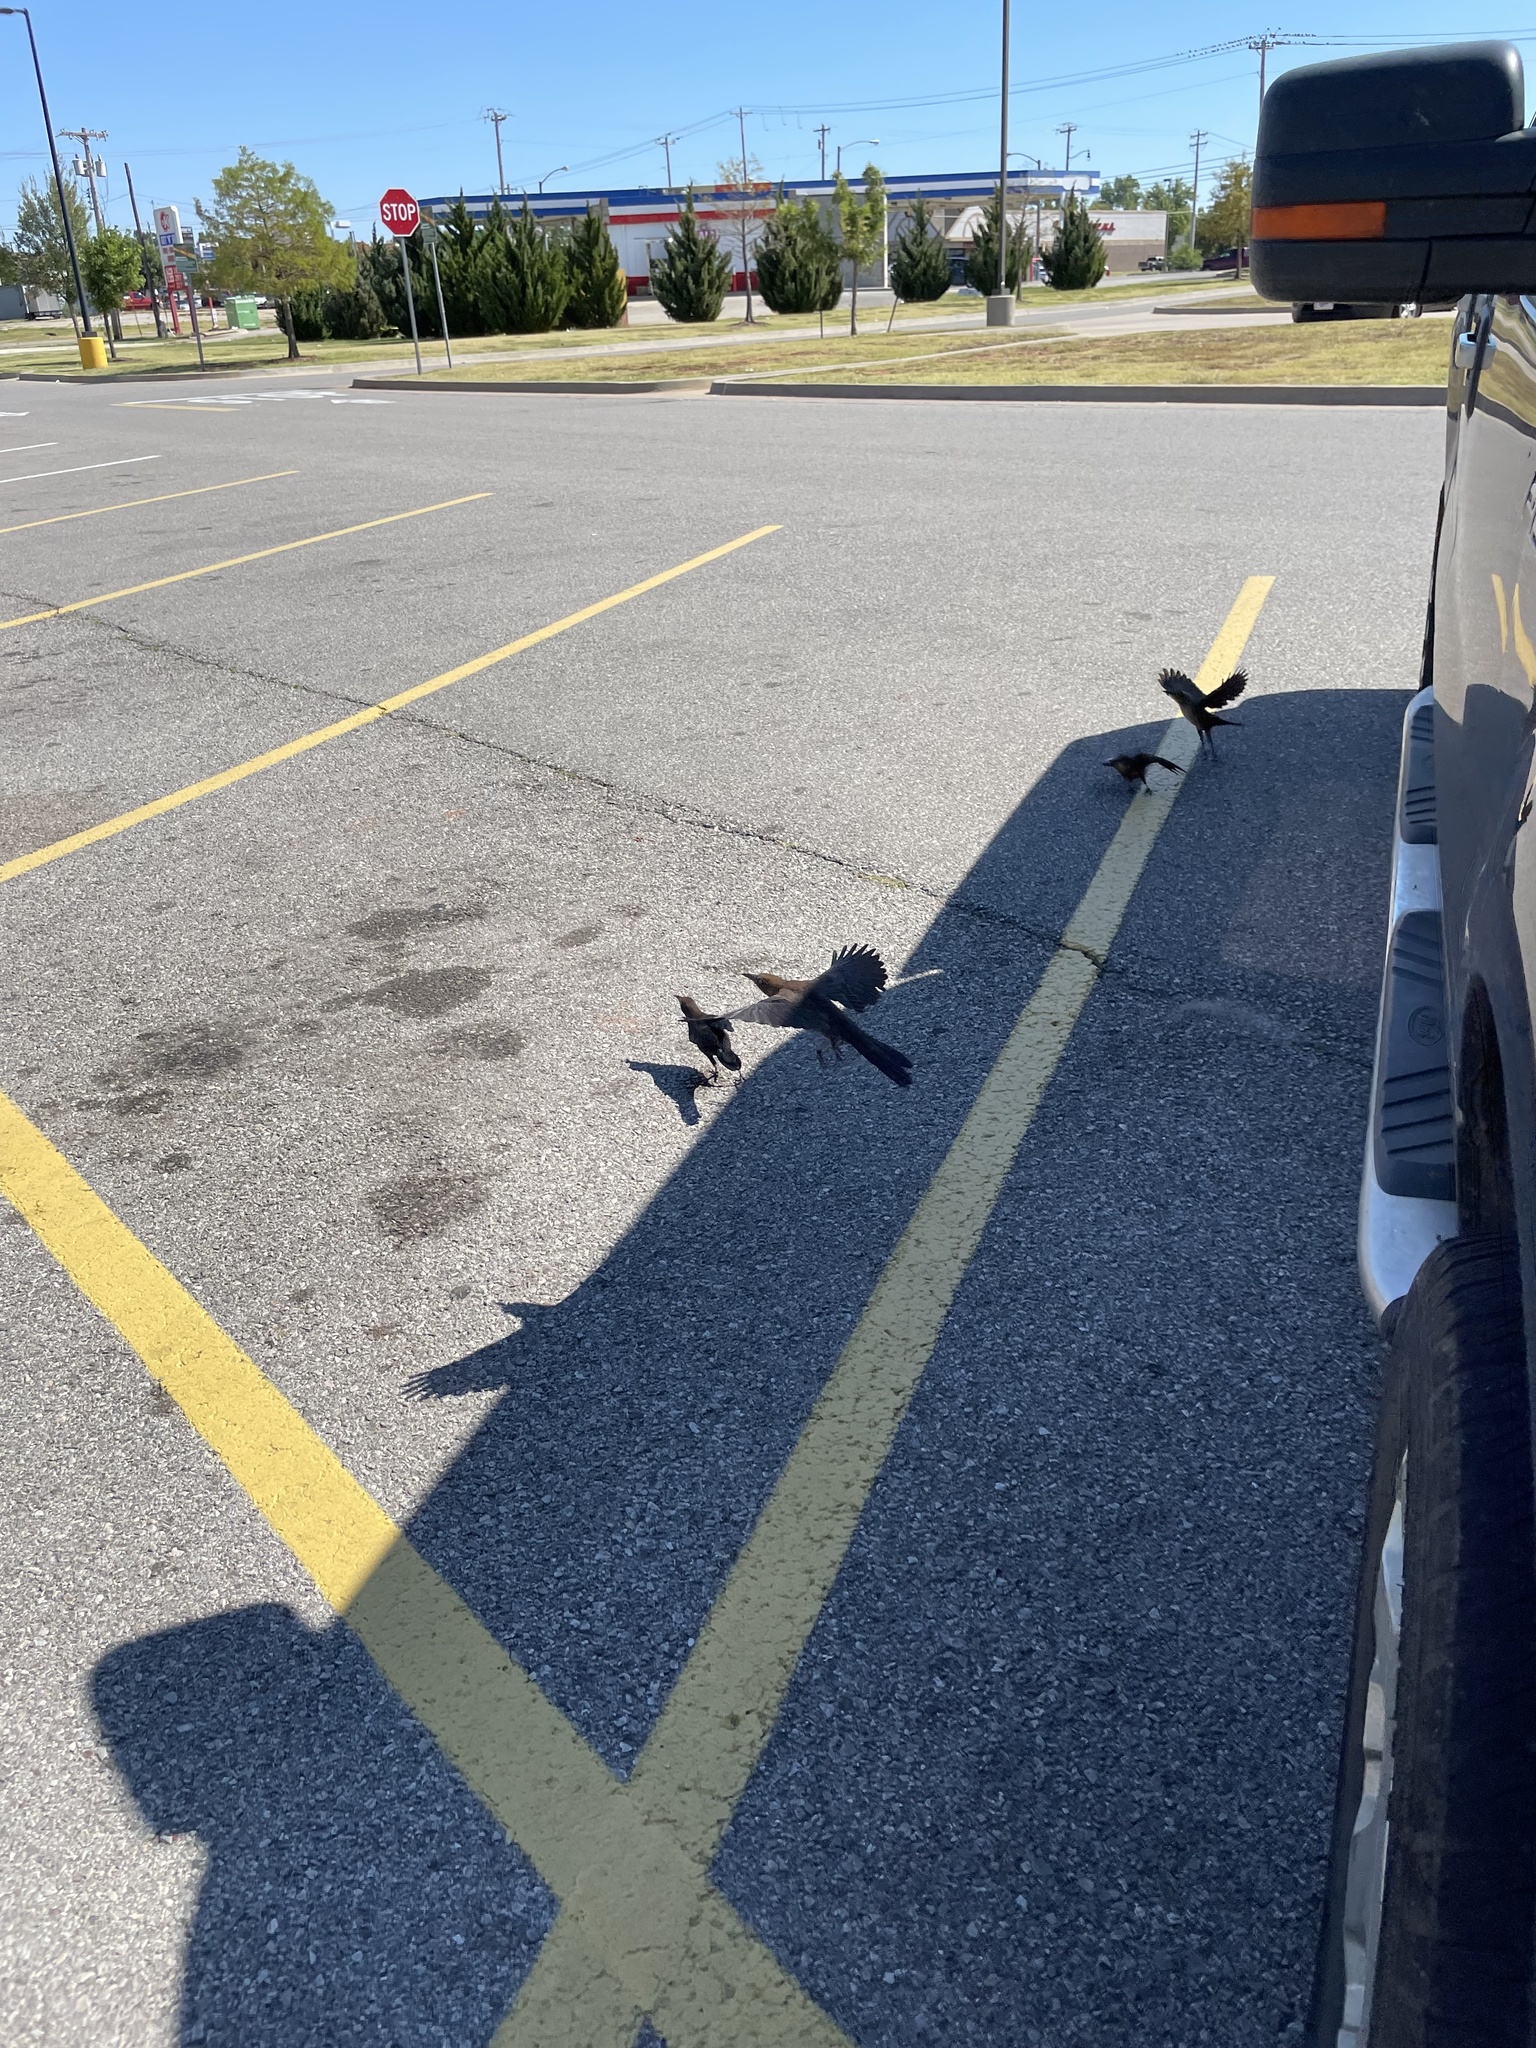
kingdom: Animalia
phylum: Chordata
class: Aves
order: Passeriformes
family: Icteridae
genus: Quiscalus
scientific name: Quiscalus mexicanus
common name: Great-tailed grackle
